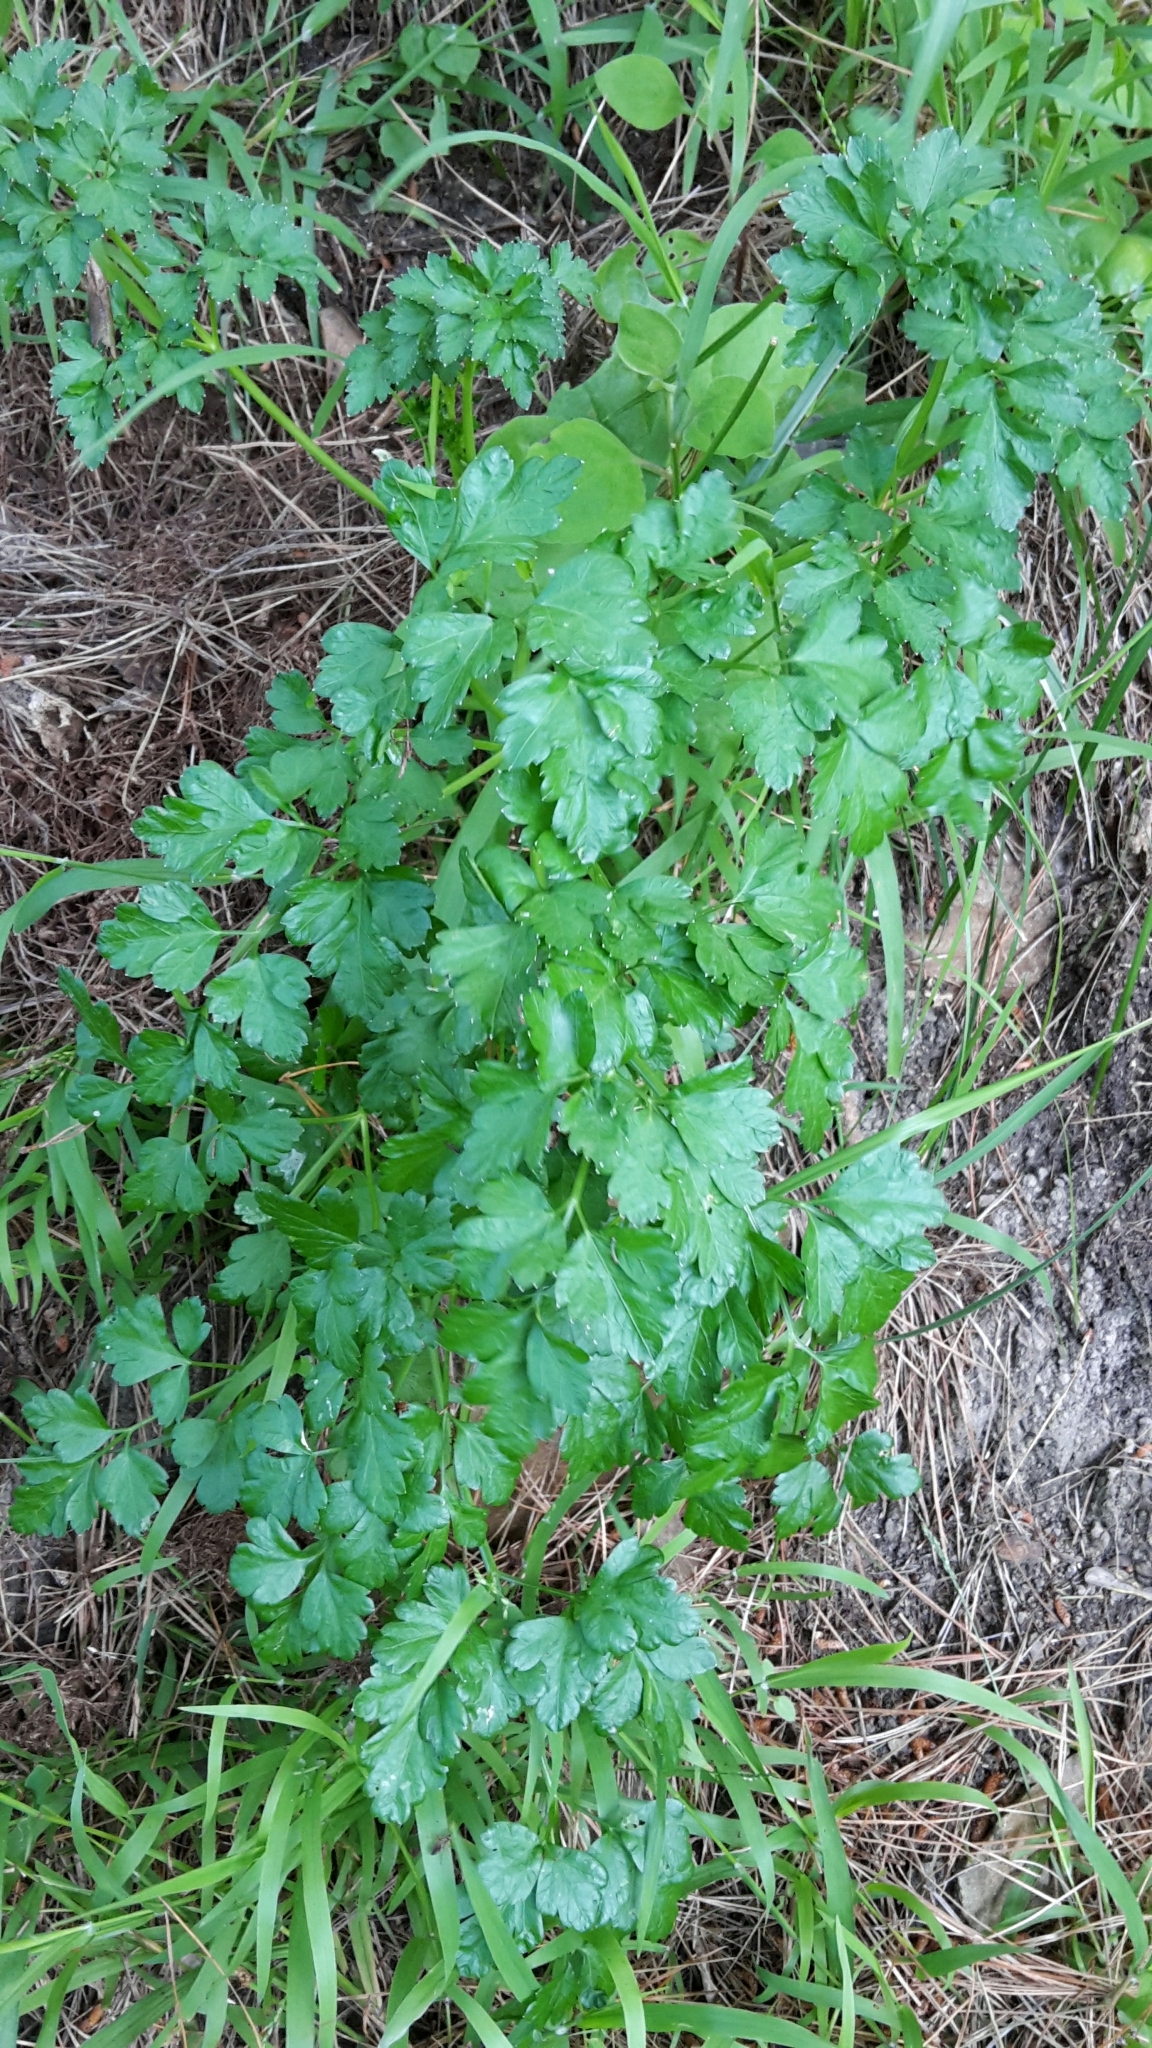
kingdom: Plantae
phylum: Tracheophyta
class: Magnoliopsida
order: Apiales
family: Apiaceae
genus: Petroselinum
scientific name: Petroselinum crispum
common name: Parsley
